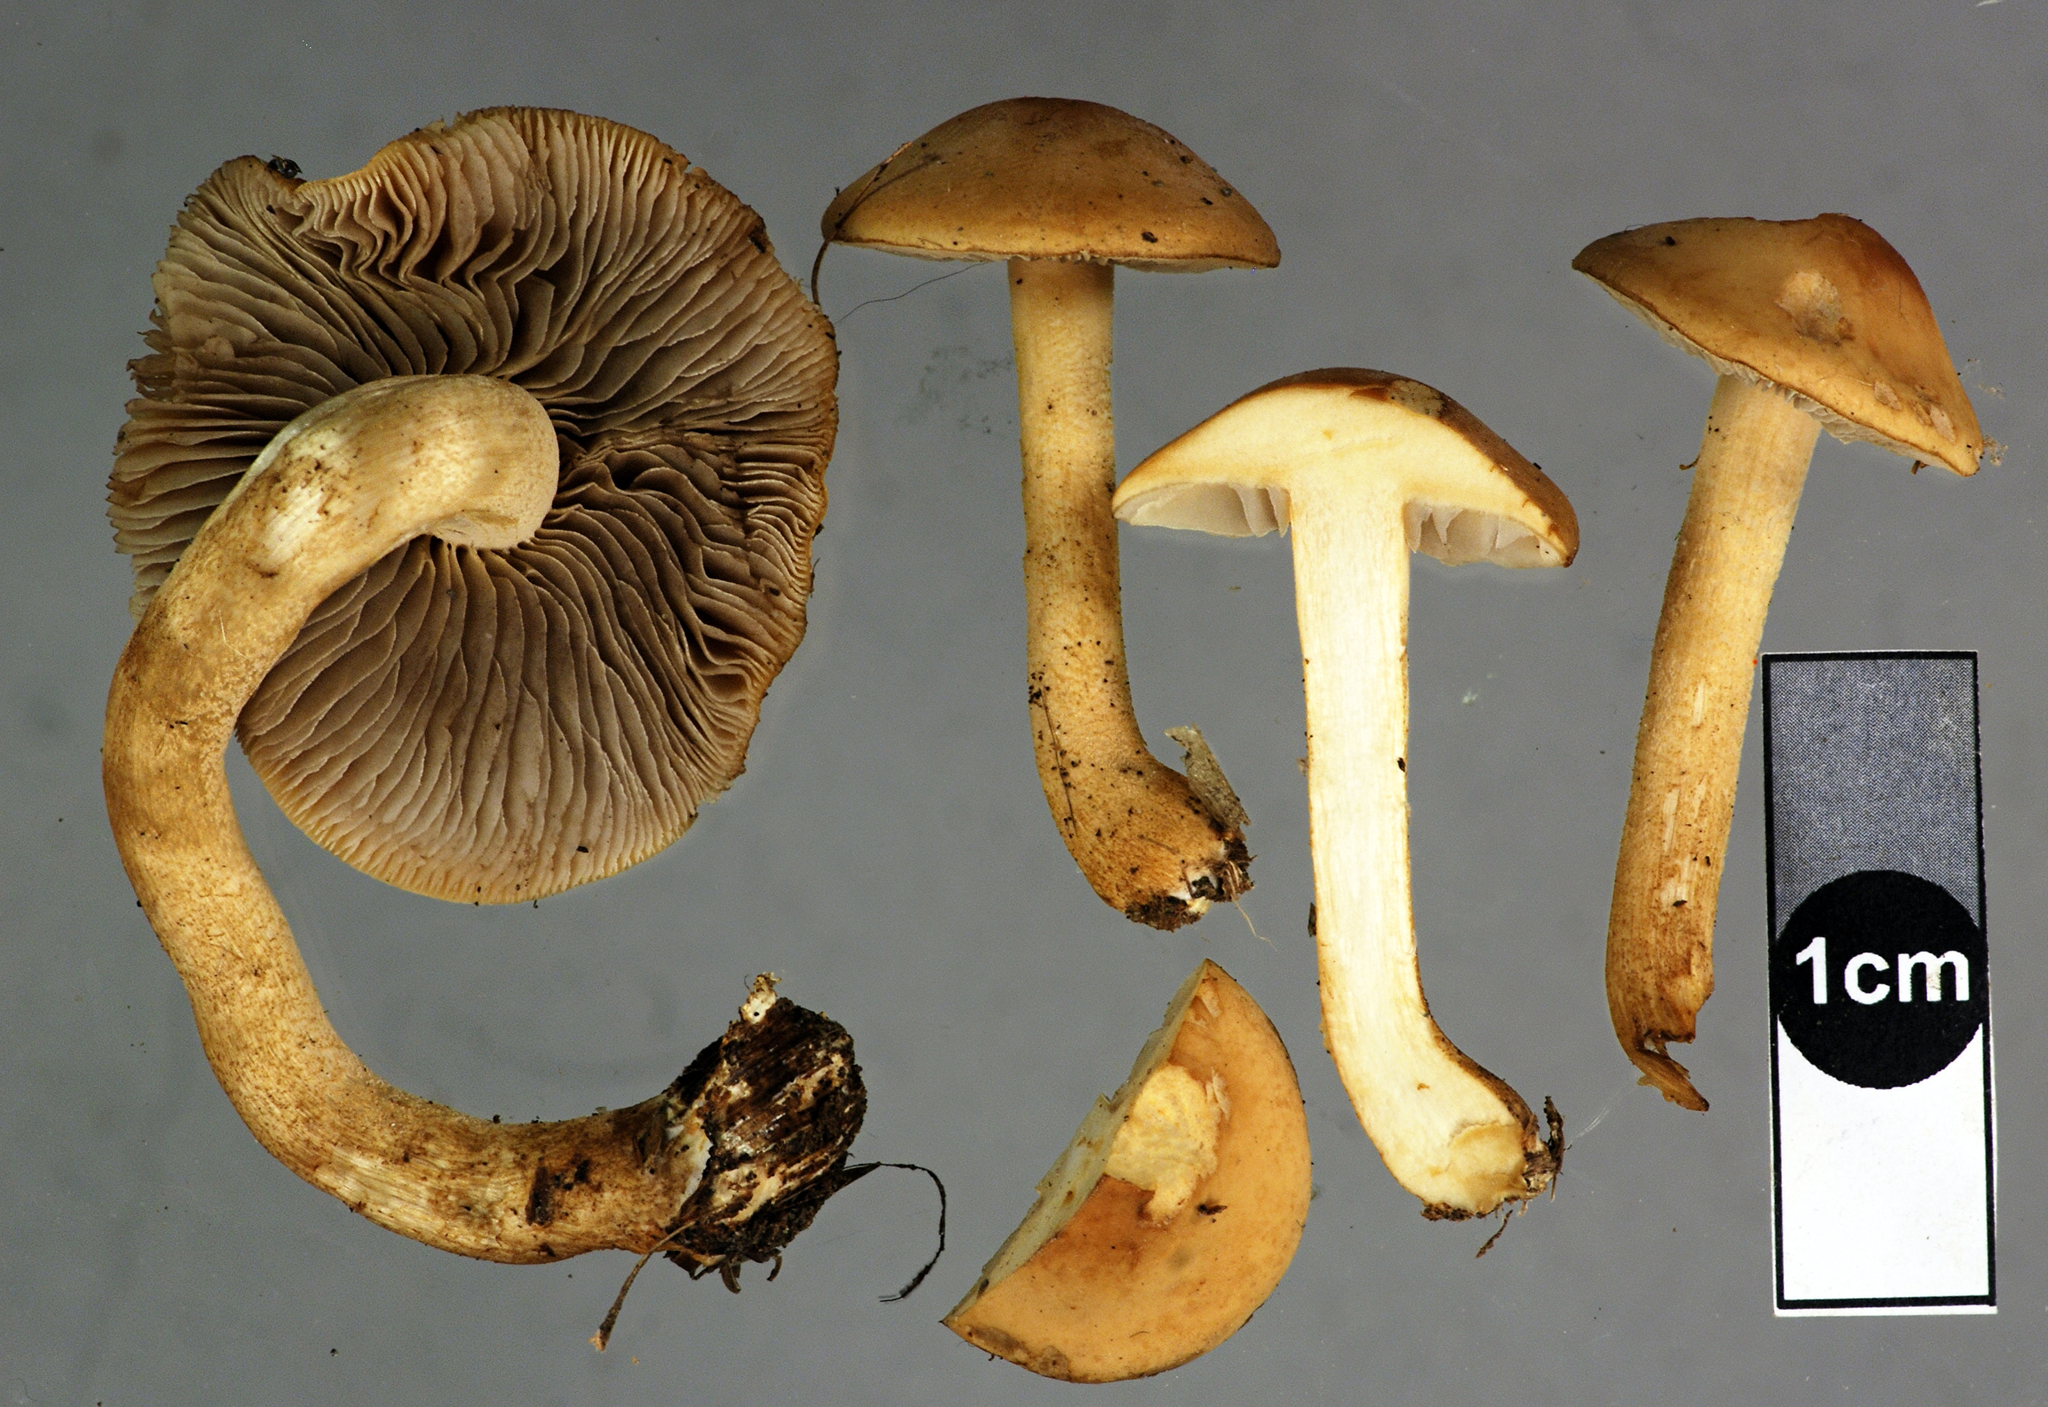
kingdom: Fungi
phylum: Basidiomycota
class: Agaricomycetes
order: Agaricales
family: Strophariaceae
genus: Agrocybe
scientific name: Agrocybe putaminum
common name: Mulch fieldcap
